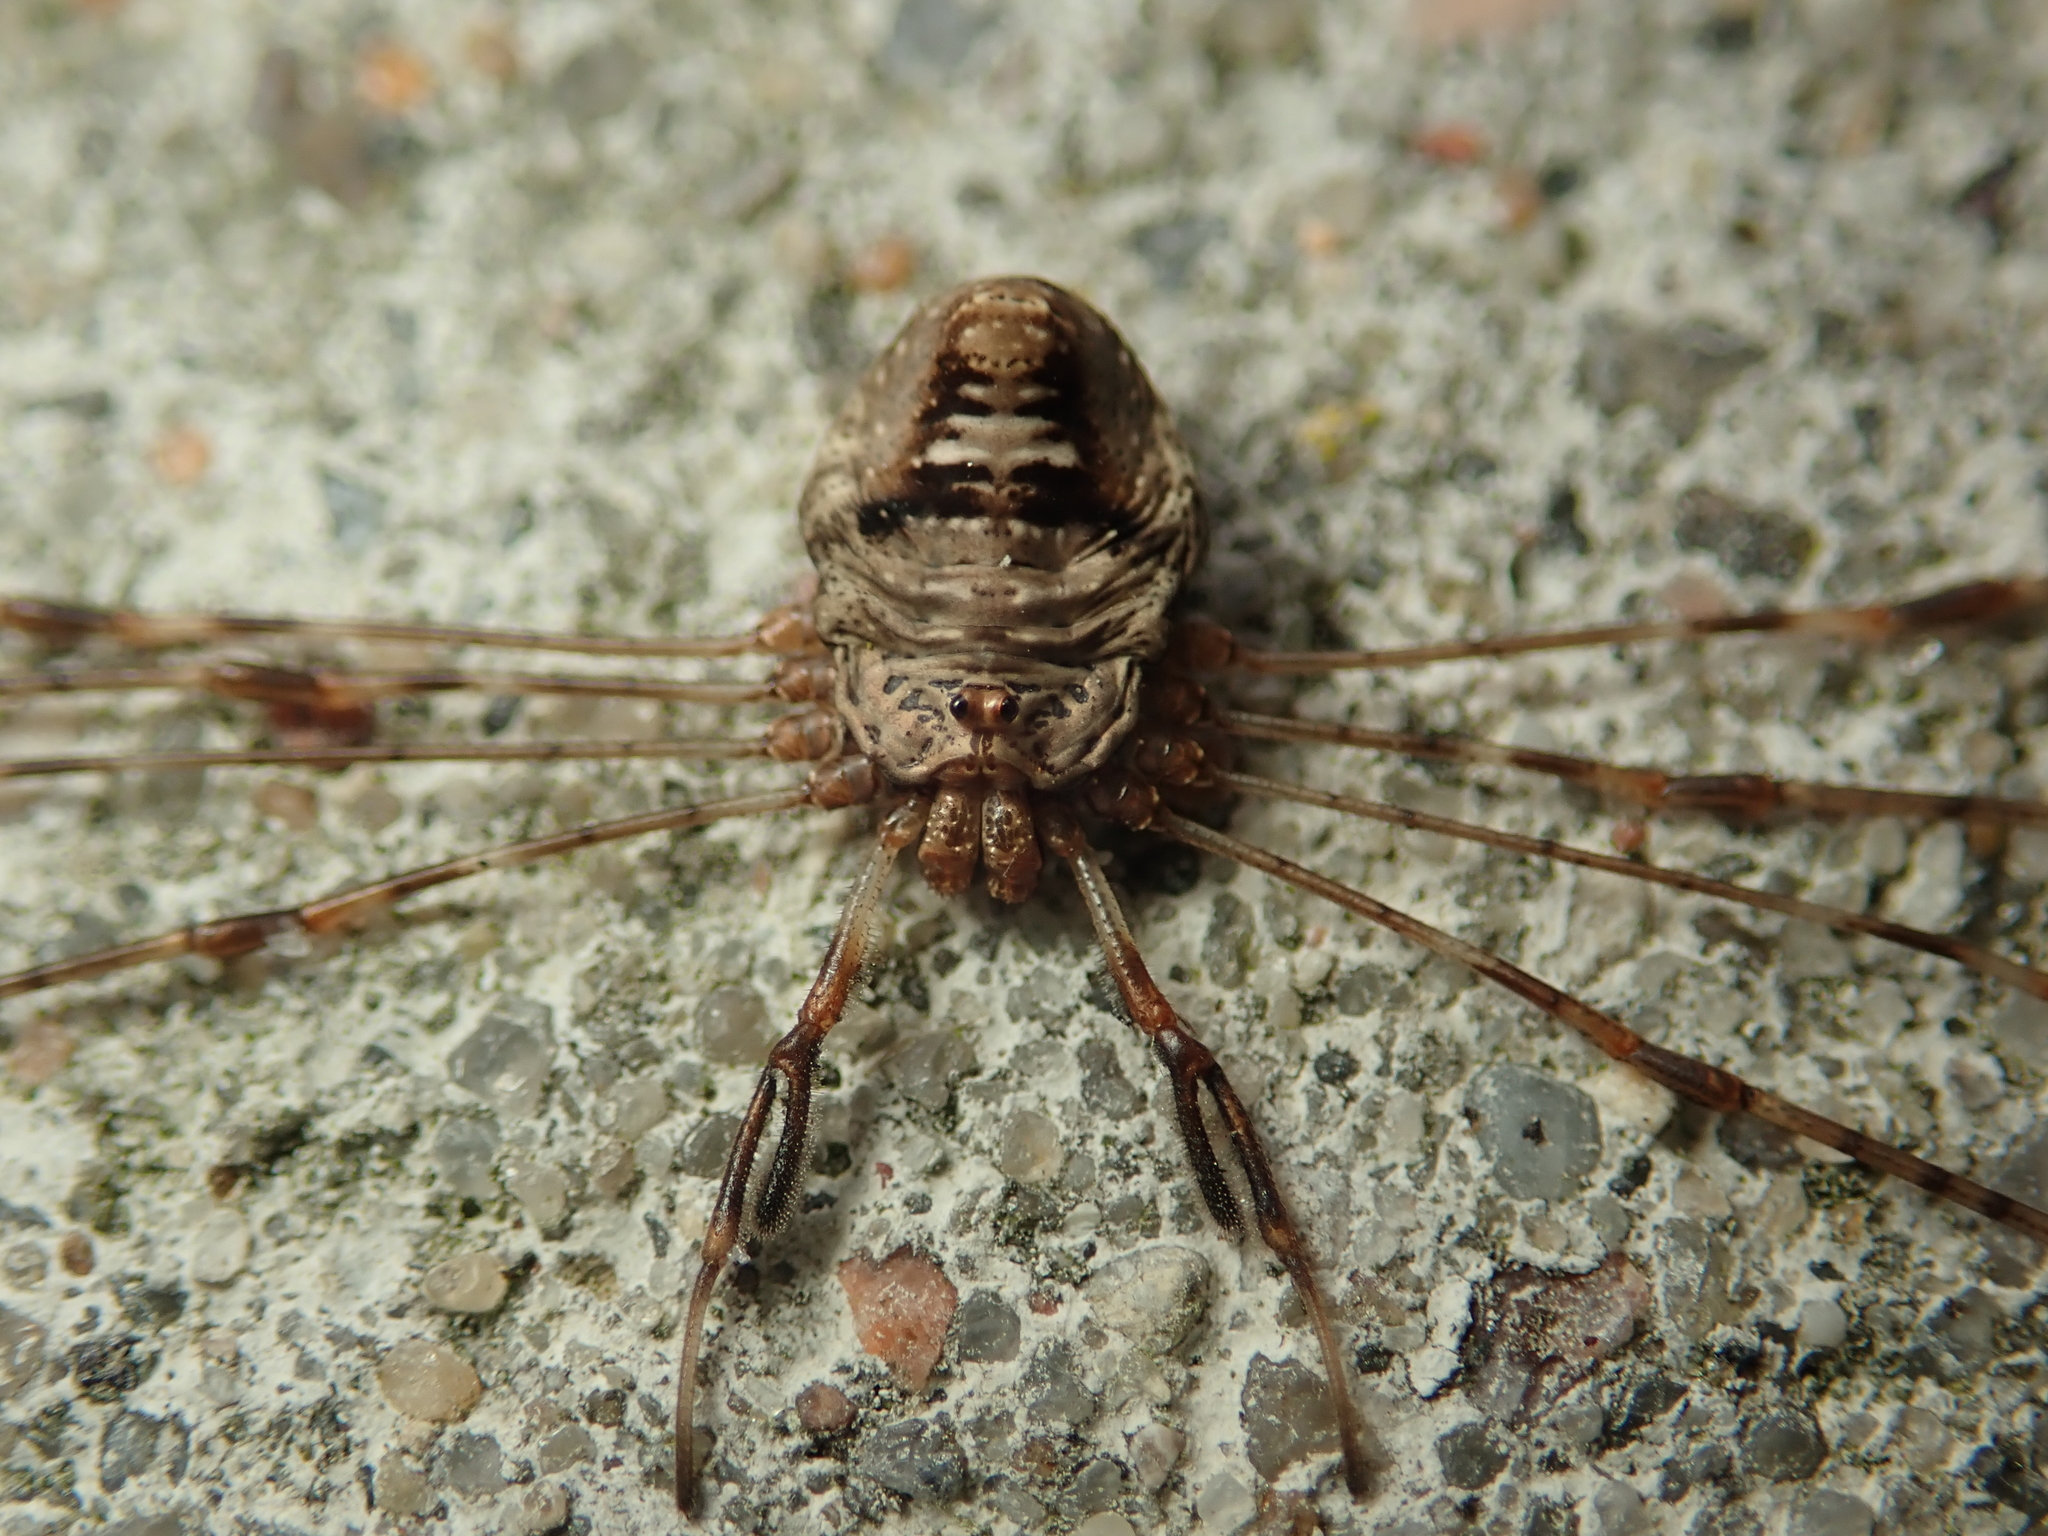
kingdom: Animalia
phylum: Arthropoda
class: Arachnida
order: Opiliones
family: Phalangiidae
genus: Dicranopalpus
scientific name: Dicranopalpus ramosus
